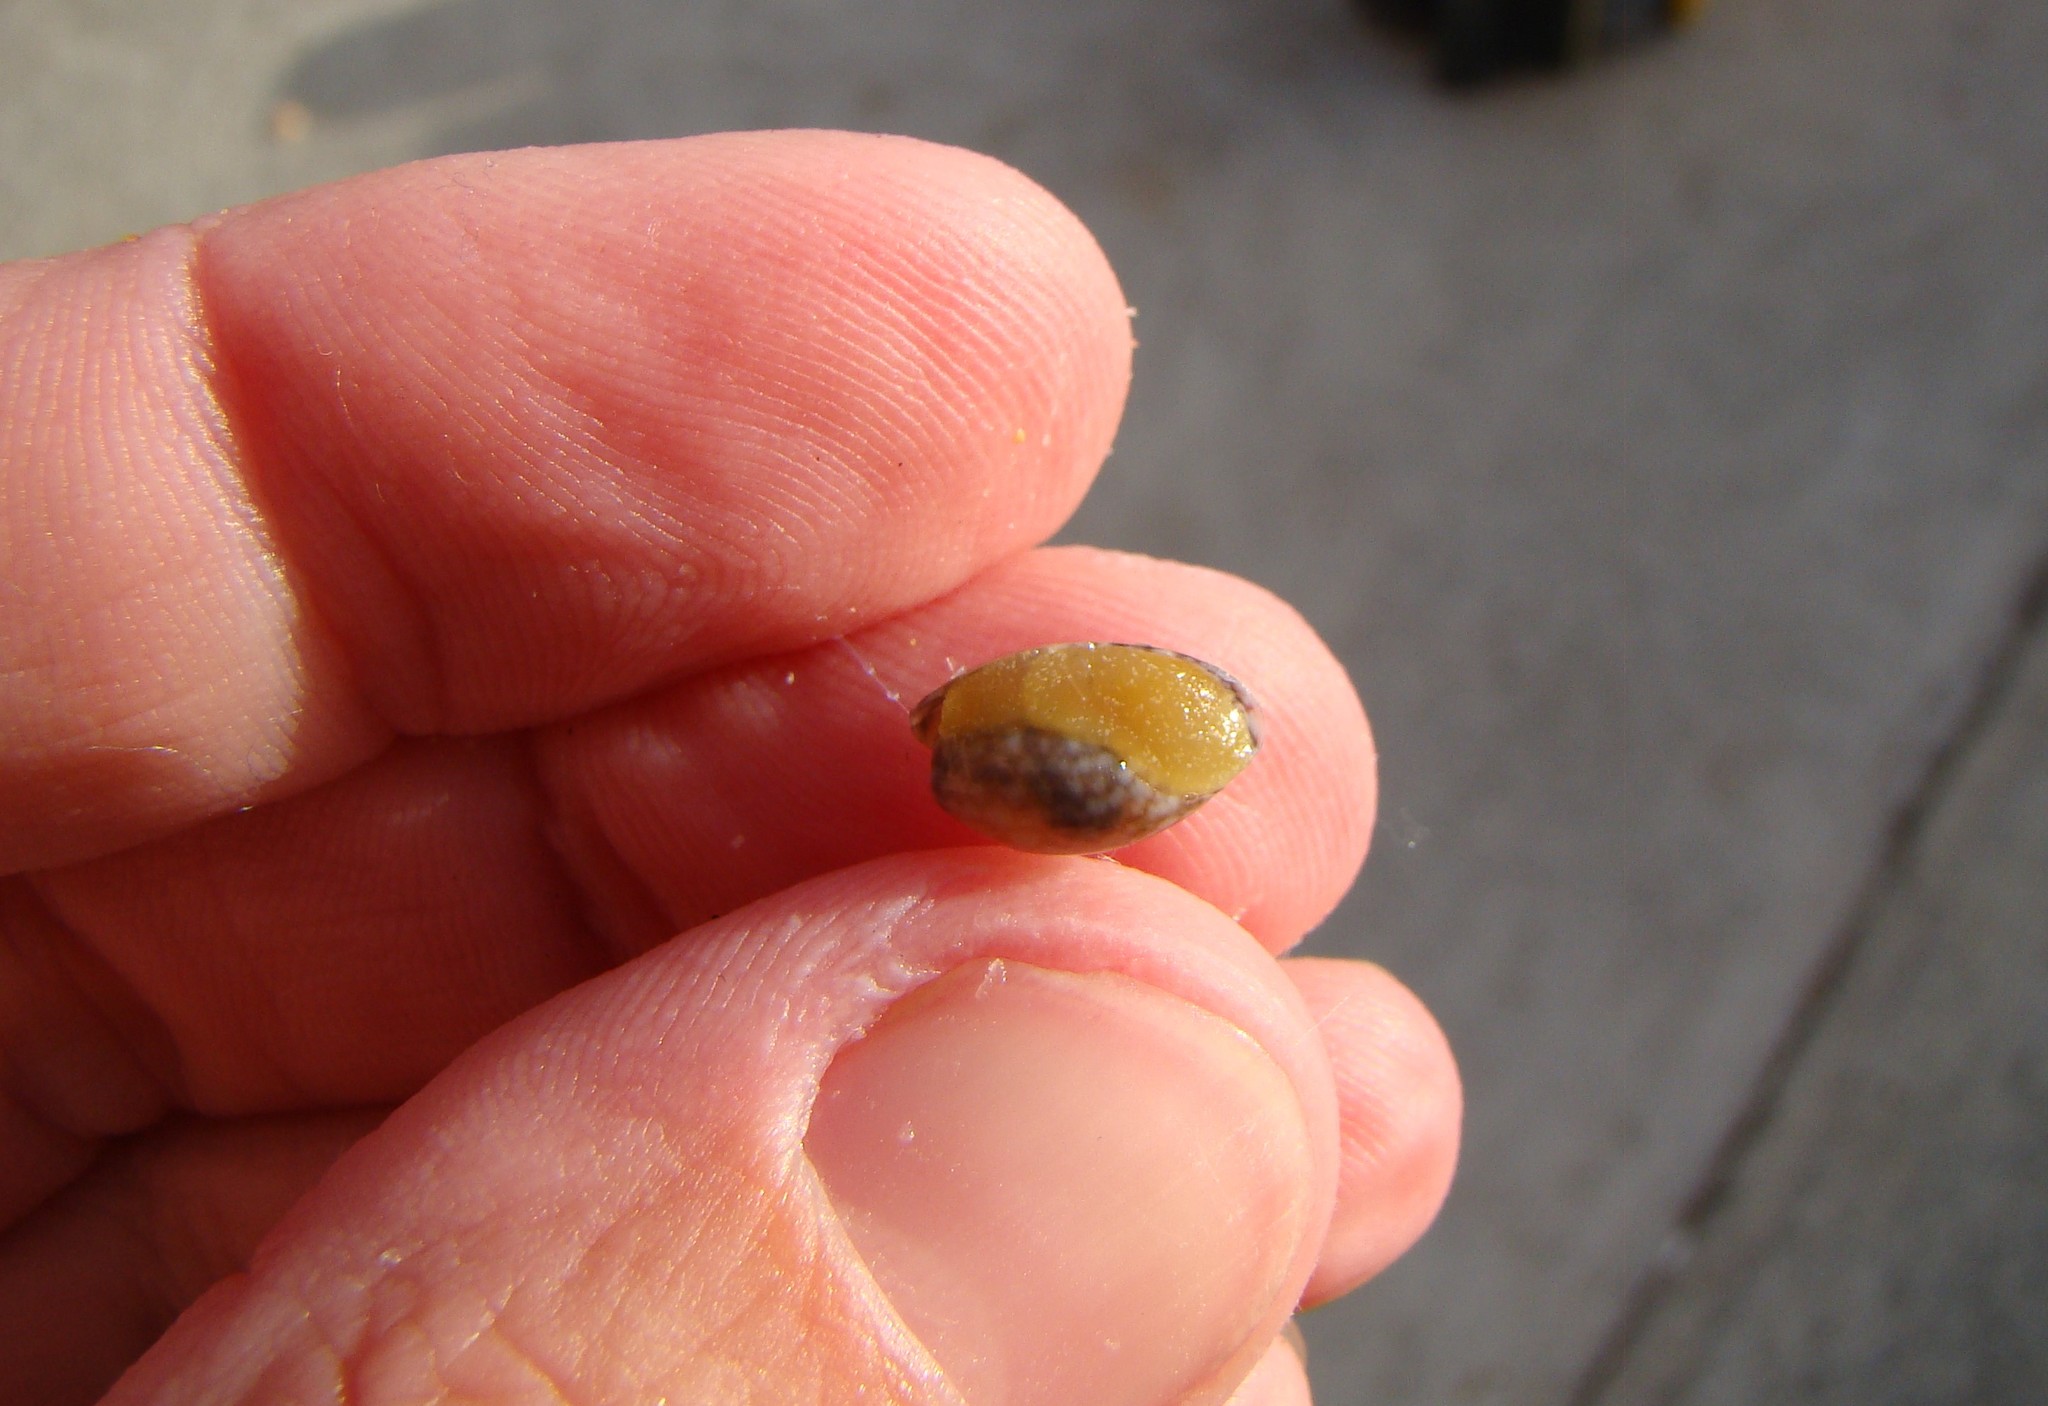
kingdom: Animalia
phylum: Mollusca
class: Gastropoda
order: Cephalaspidea
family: Bullidae
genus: Bulla
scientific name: Bulla quoyii
